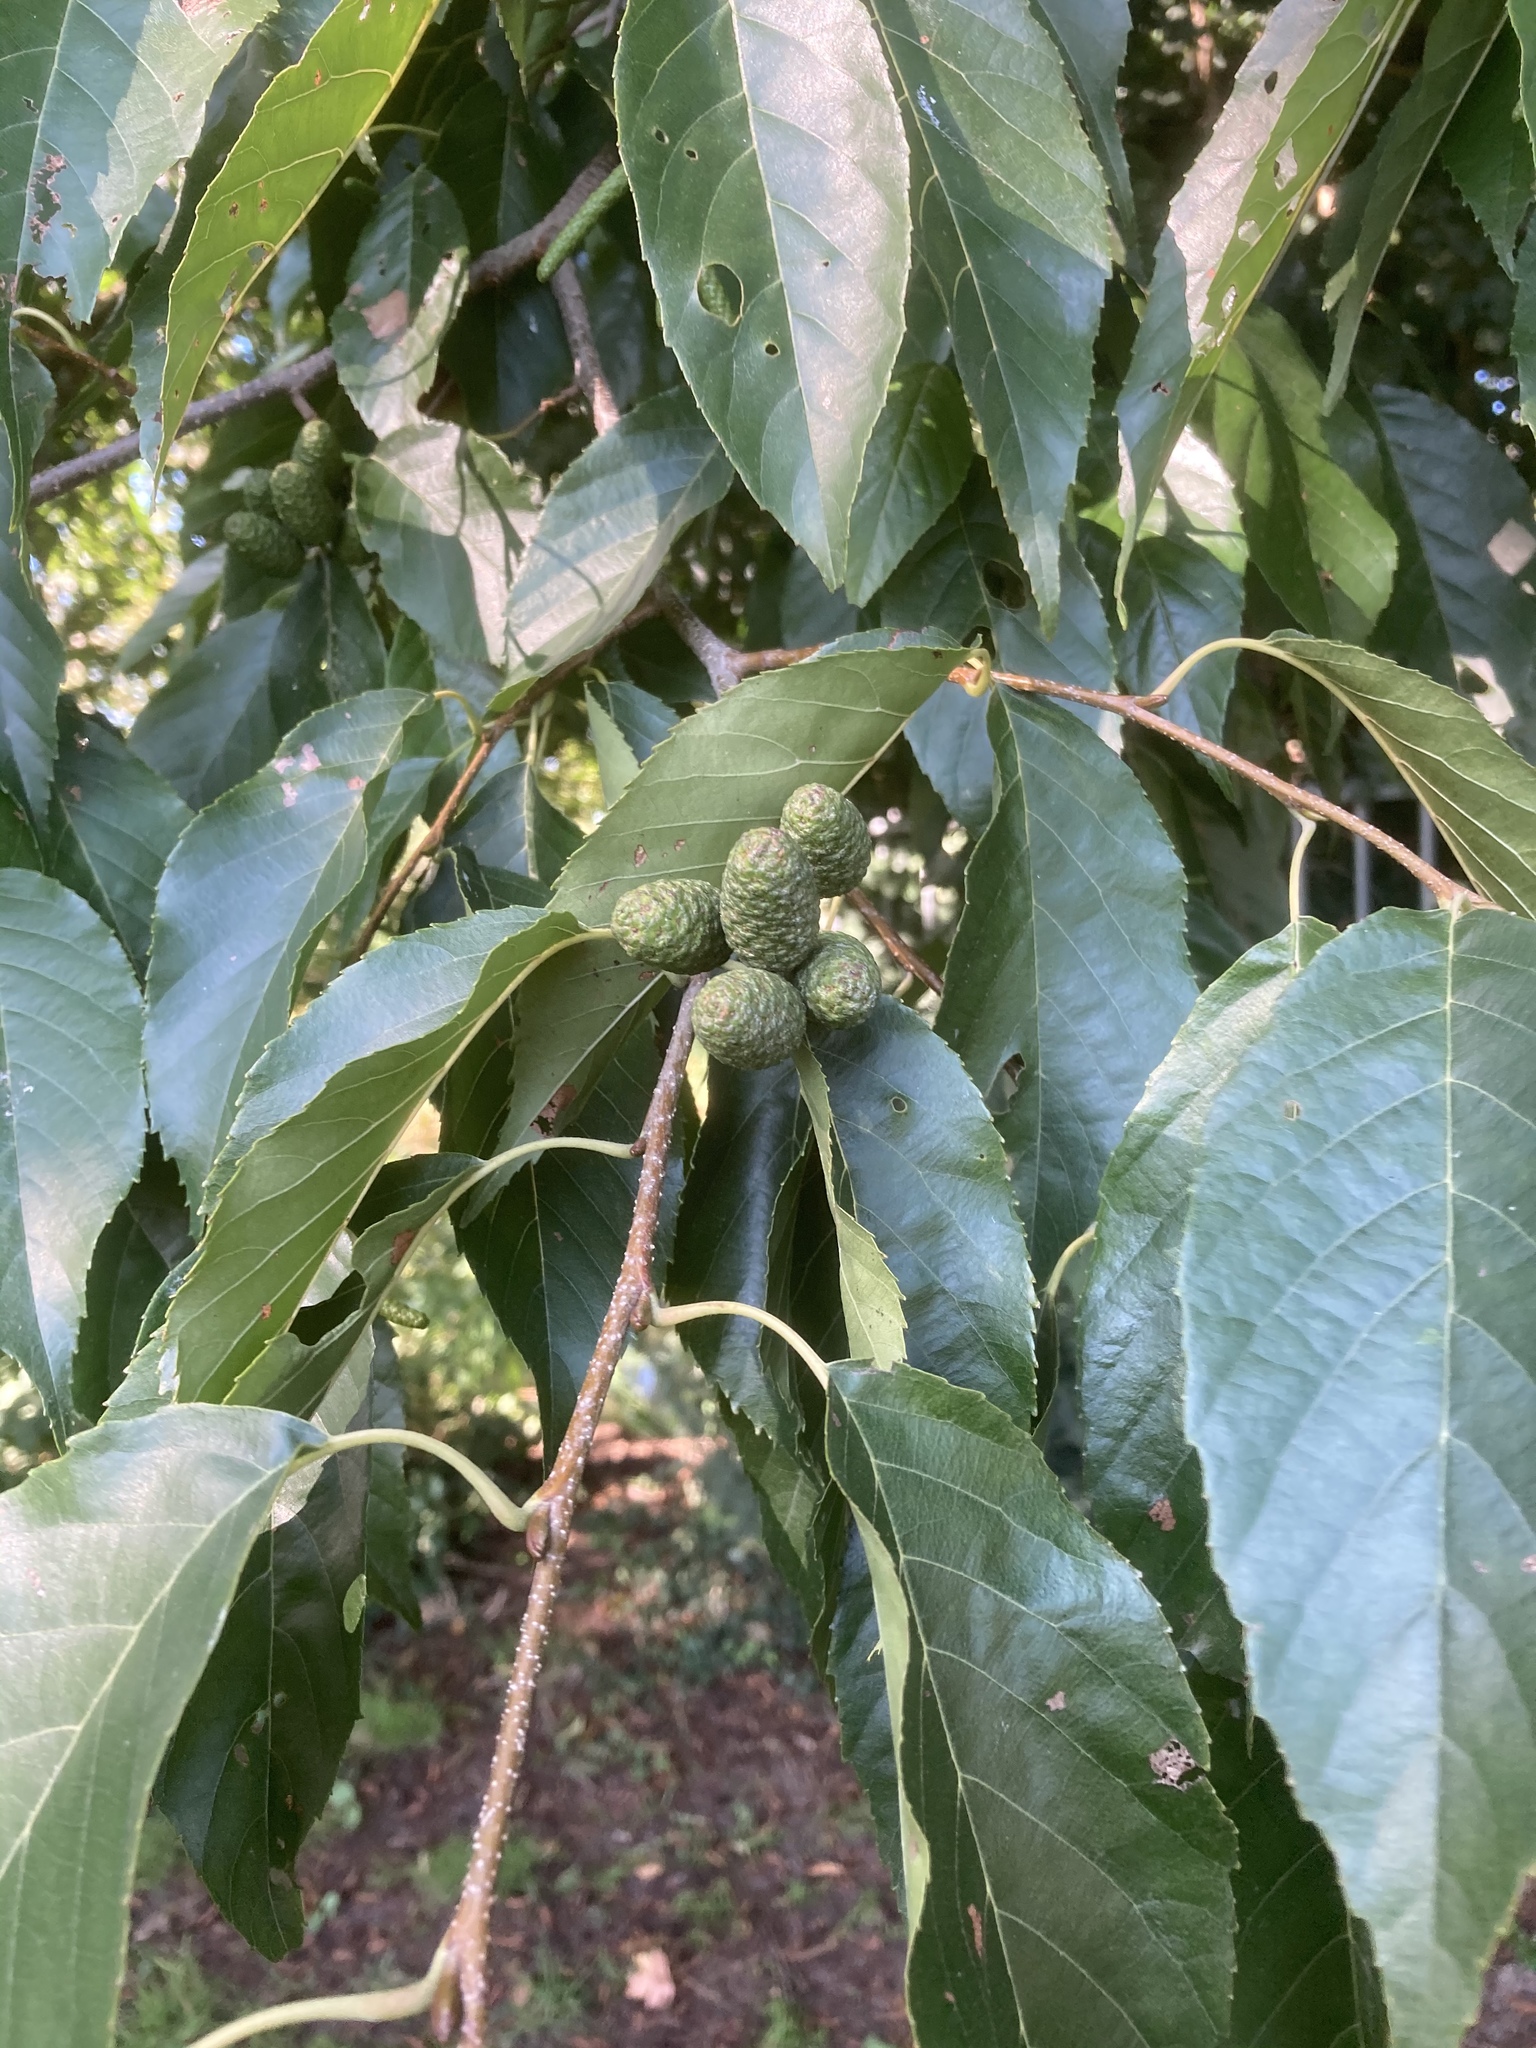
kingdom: Plantae
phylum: Tracheophyta
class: Magnoliopsida
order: Fagales
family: Betulaceae
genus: Alnus
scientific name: Alnus spaethii
